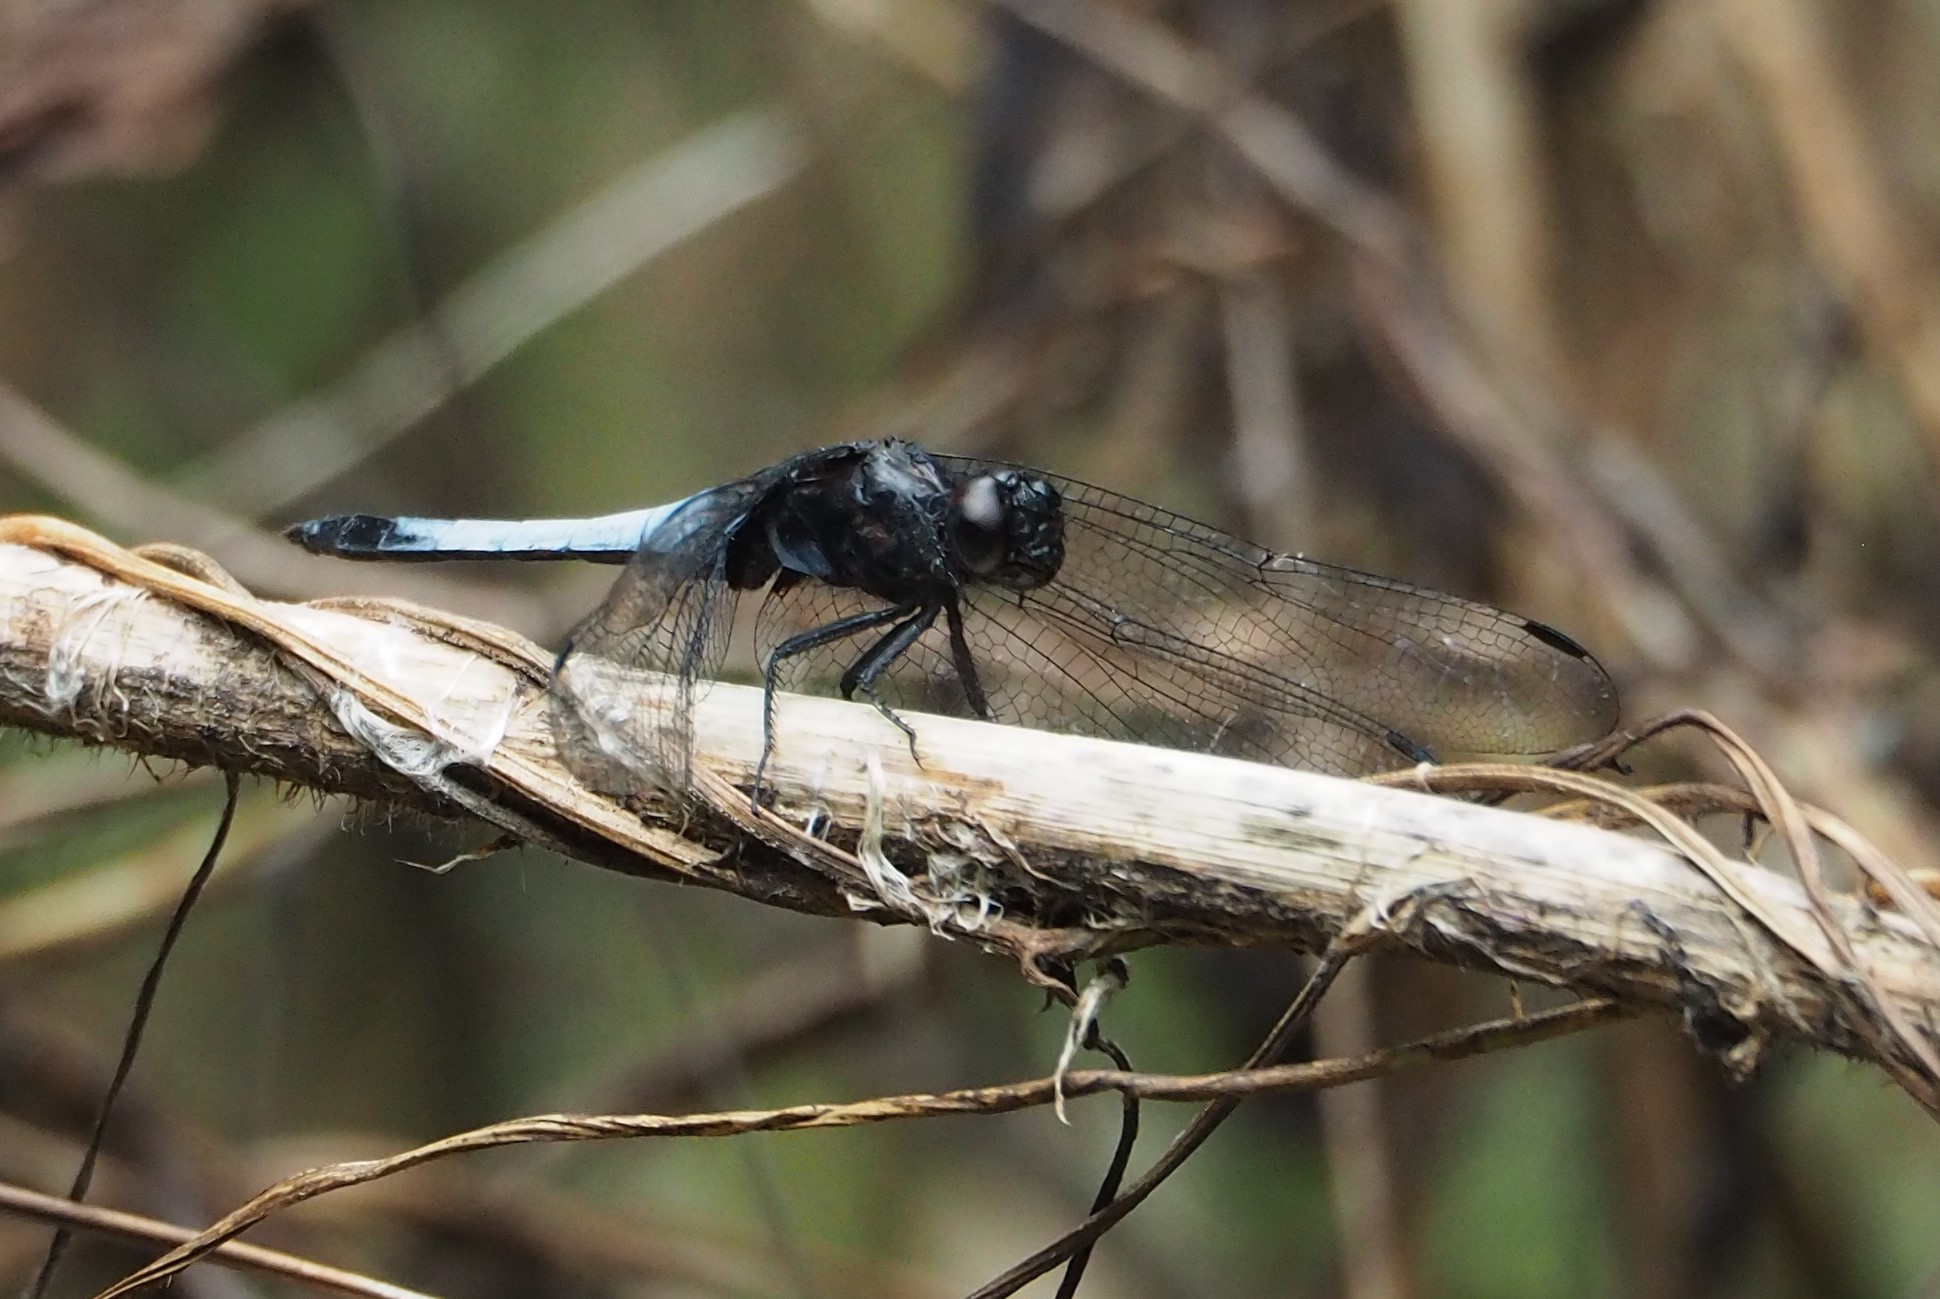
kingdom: Animalia
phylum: Arthropoda
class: Insecta
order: Odonata
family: Libellulidae
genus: Orthetrum
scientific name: Orthetrum triangulare
